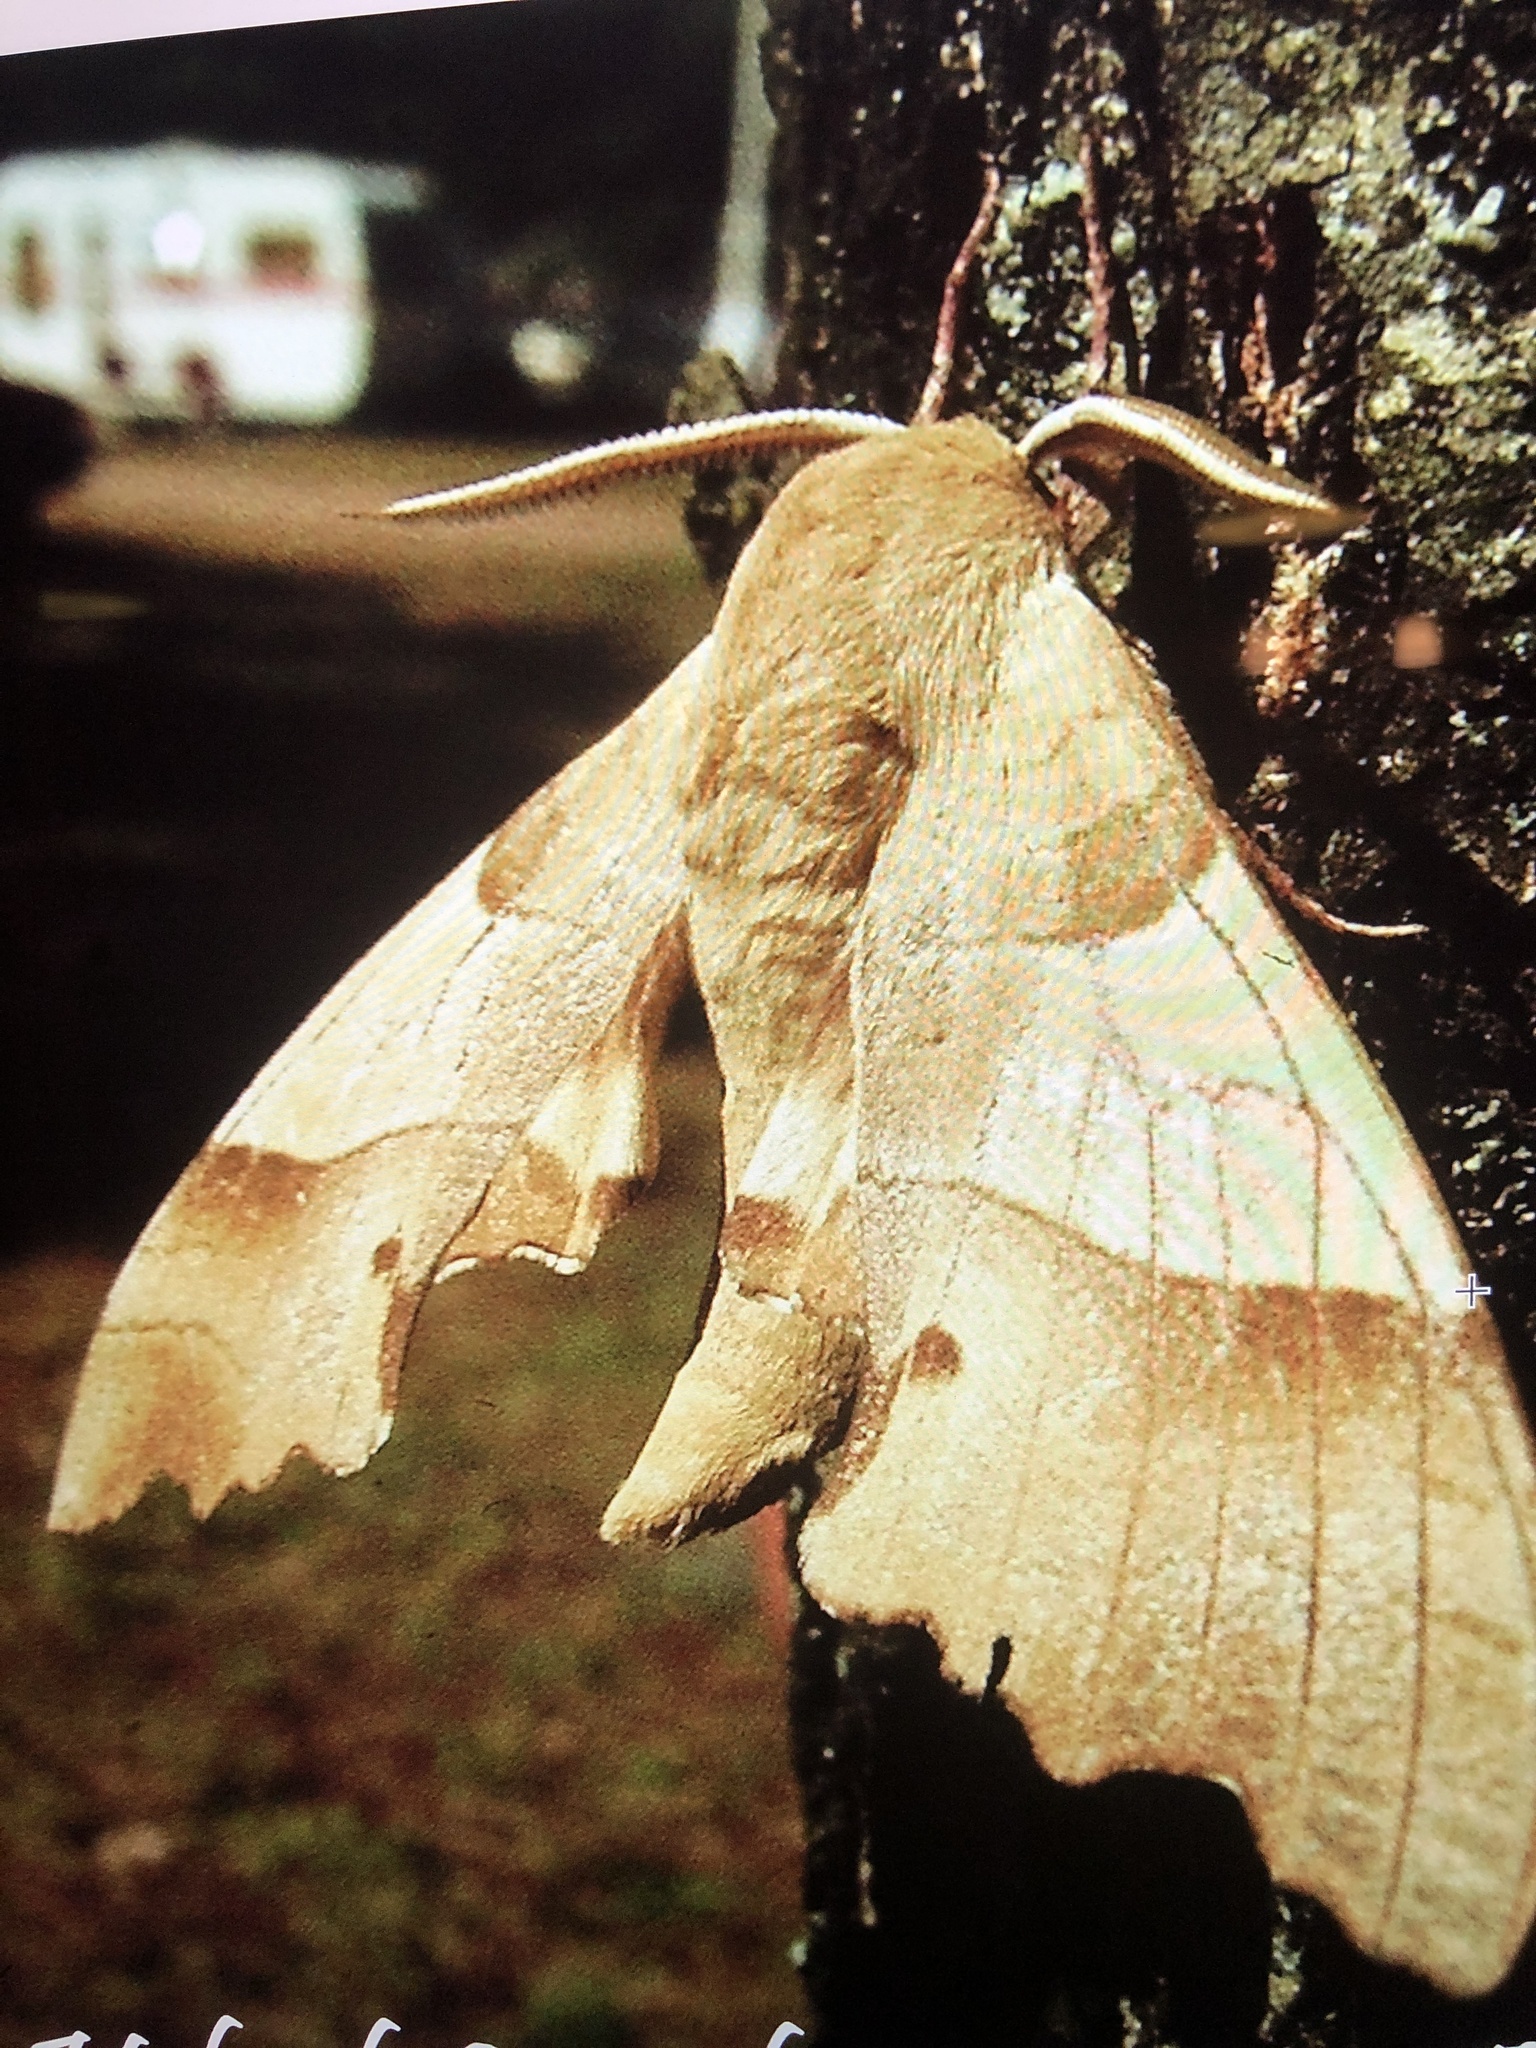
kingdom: Animalia
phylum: Arthropoda
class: Insecta
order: Lepidoptera
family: Sphingidae
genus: Marumba
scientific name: Marumba quercus
